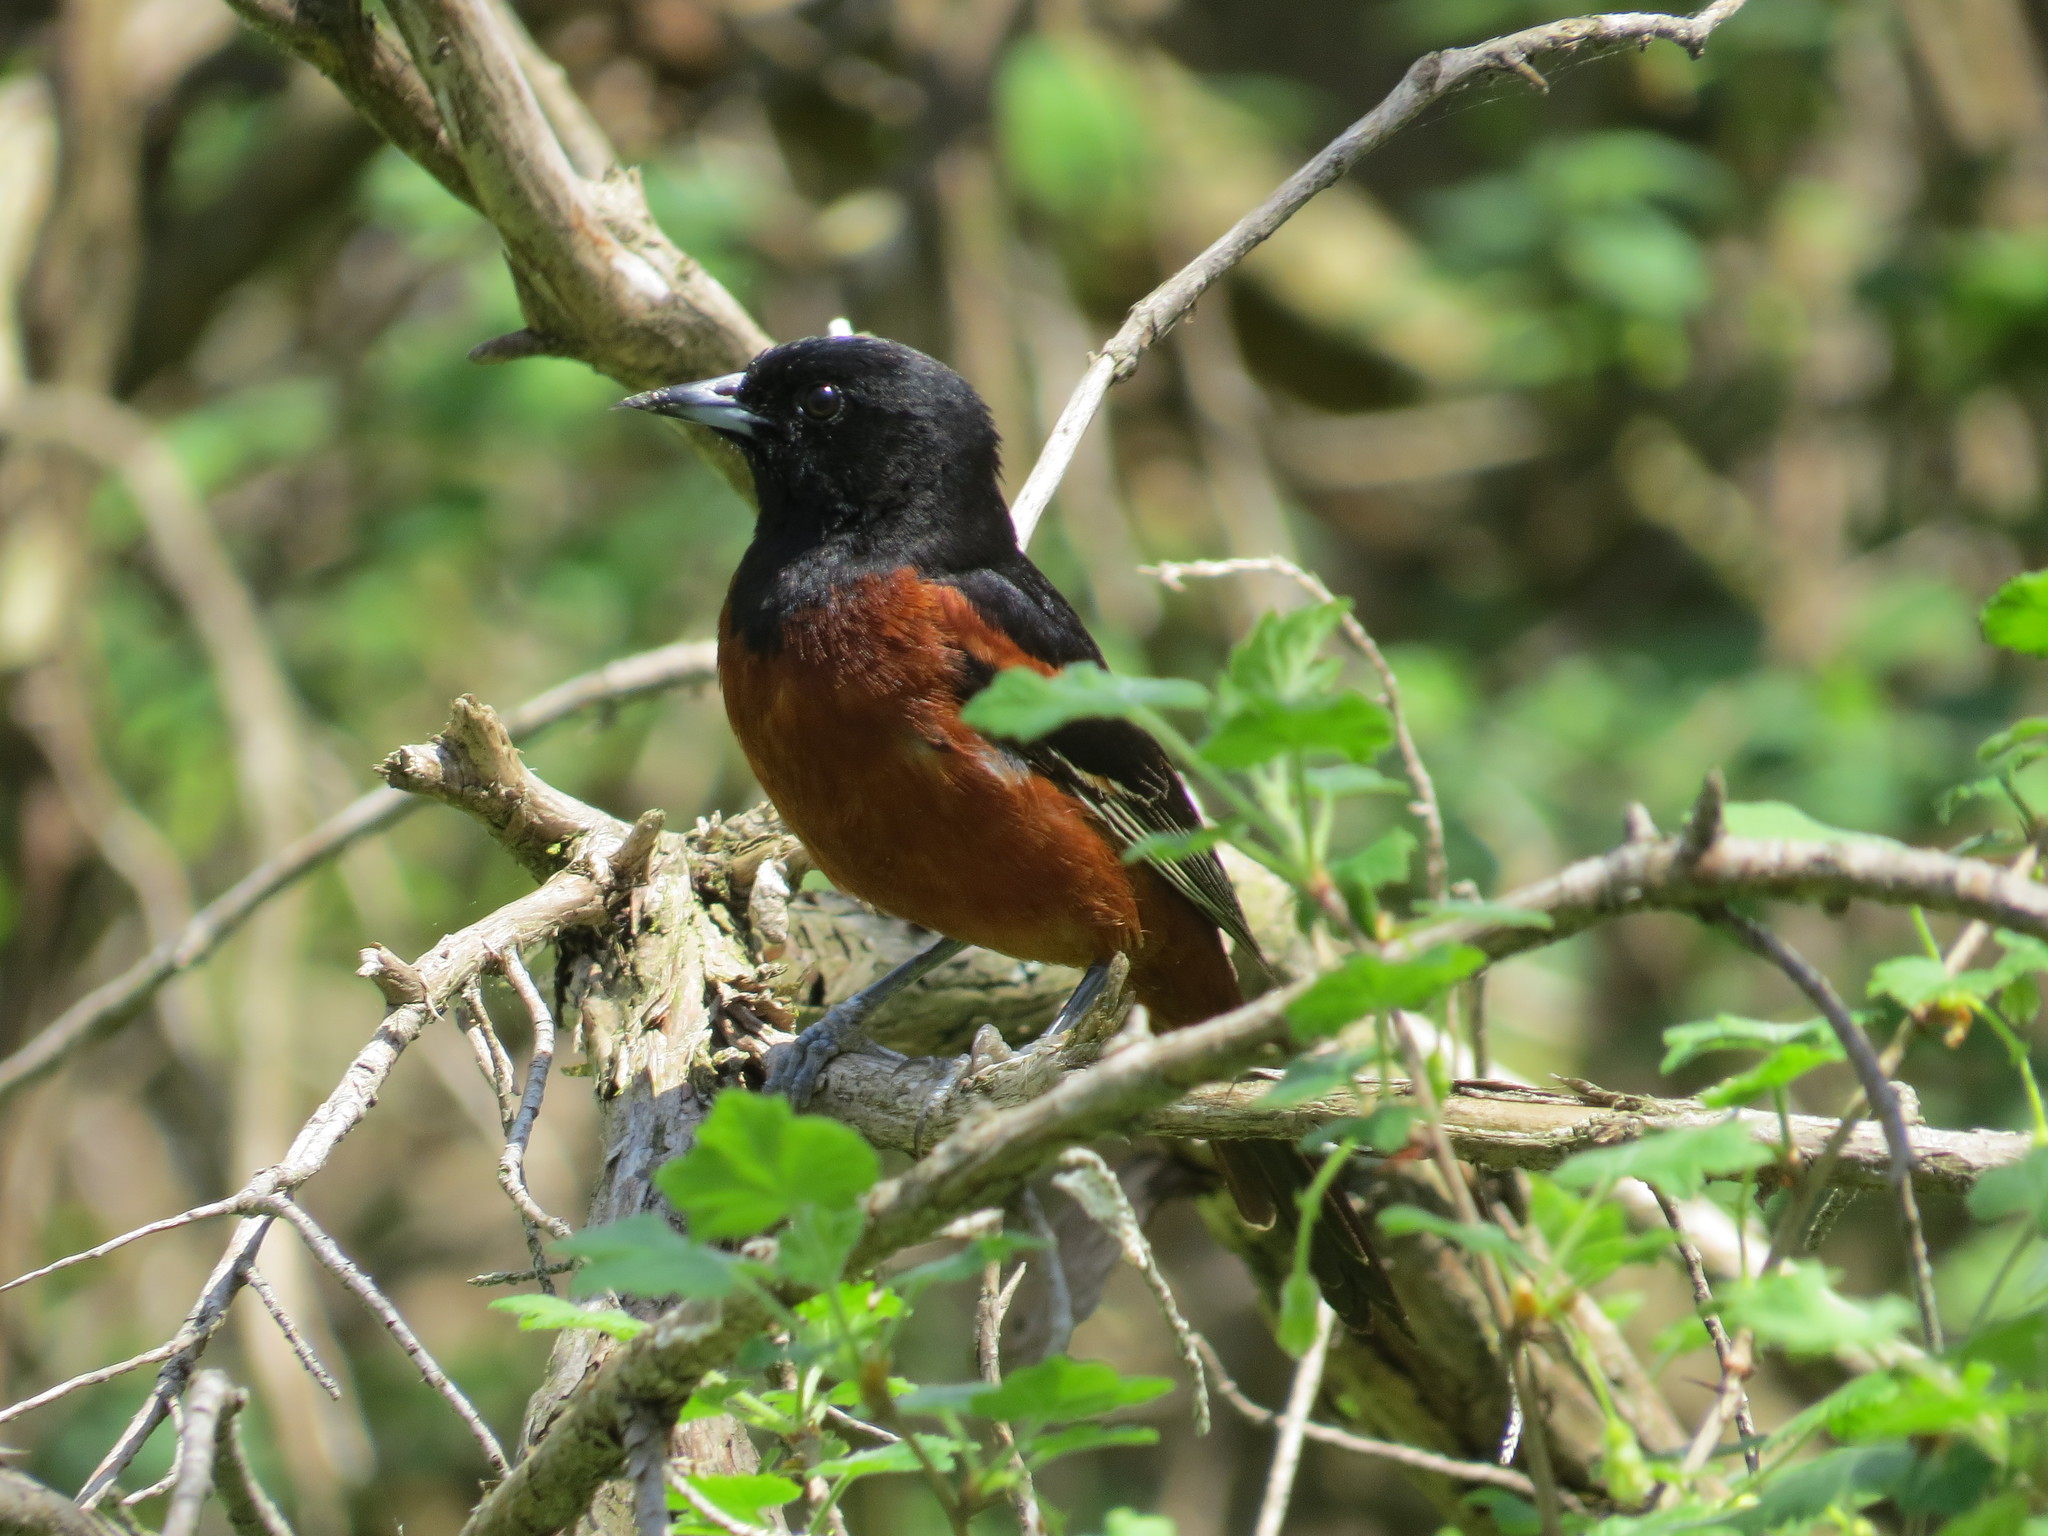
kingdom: Animalia
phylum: Chordata
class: Aves
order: Passeriformes
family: Icteridae
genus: Icterus
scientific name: Icterus spurius
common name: Orchard oriole
